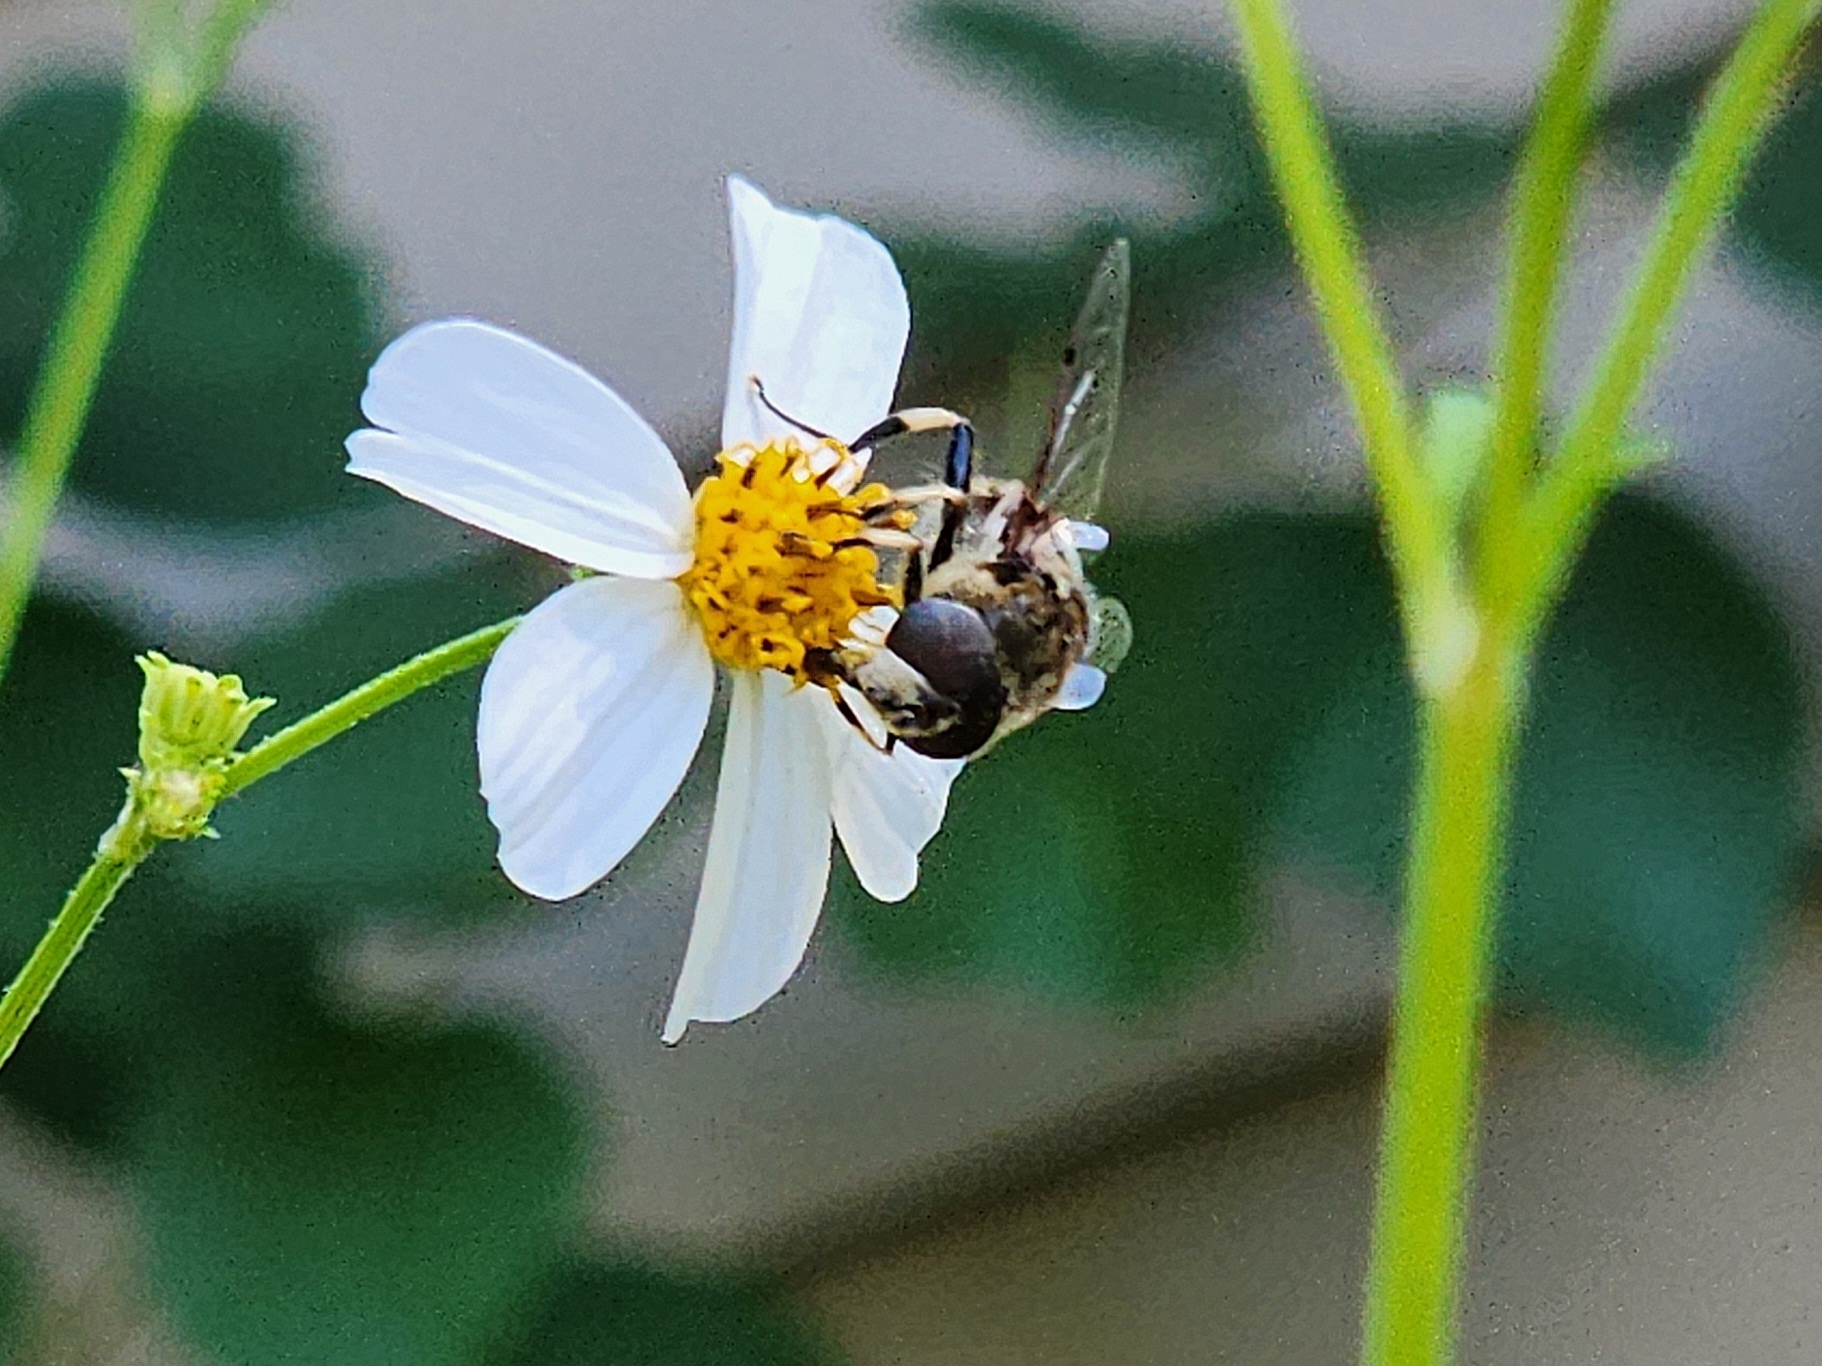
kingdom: Animalia
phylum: Arthropoda
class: Insecta
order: Diptera
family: Syrphidae
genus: Eristalis
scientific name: Eristalis dimidiata
